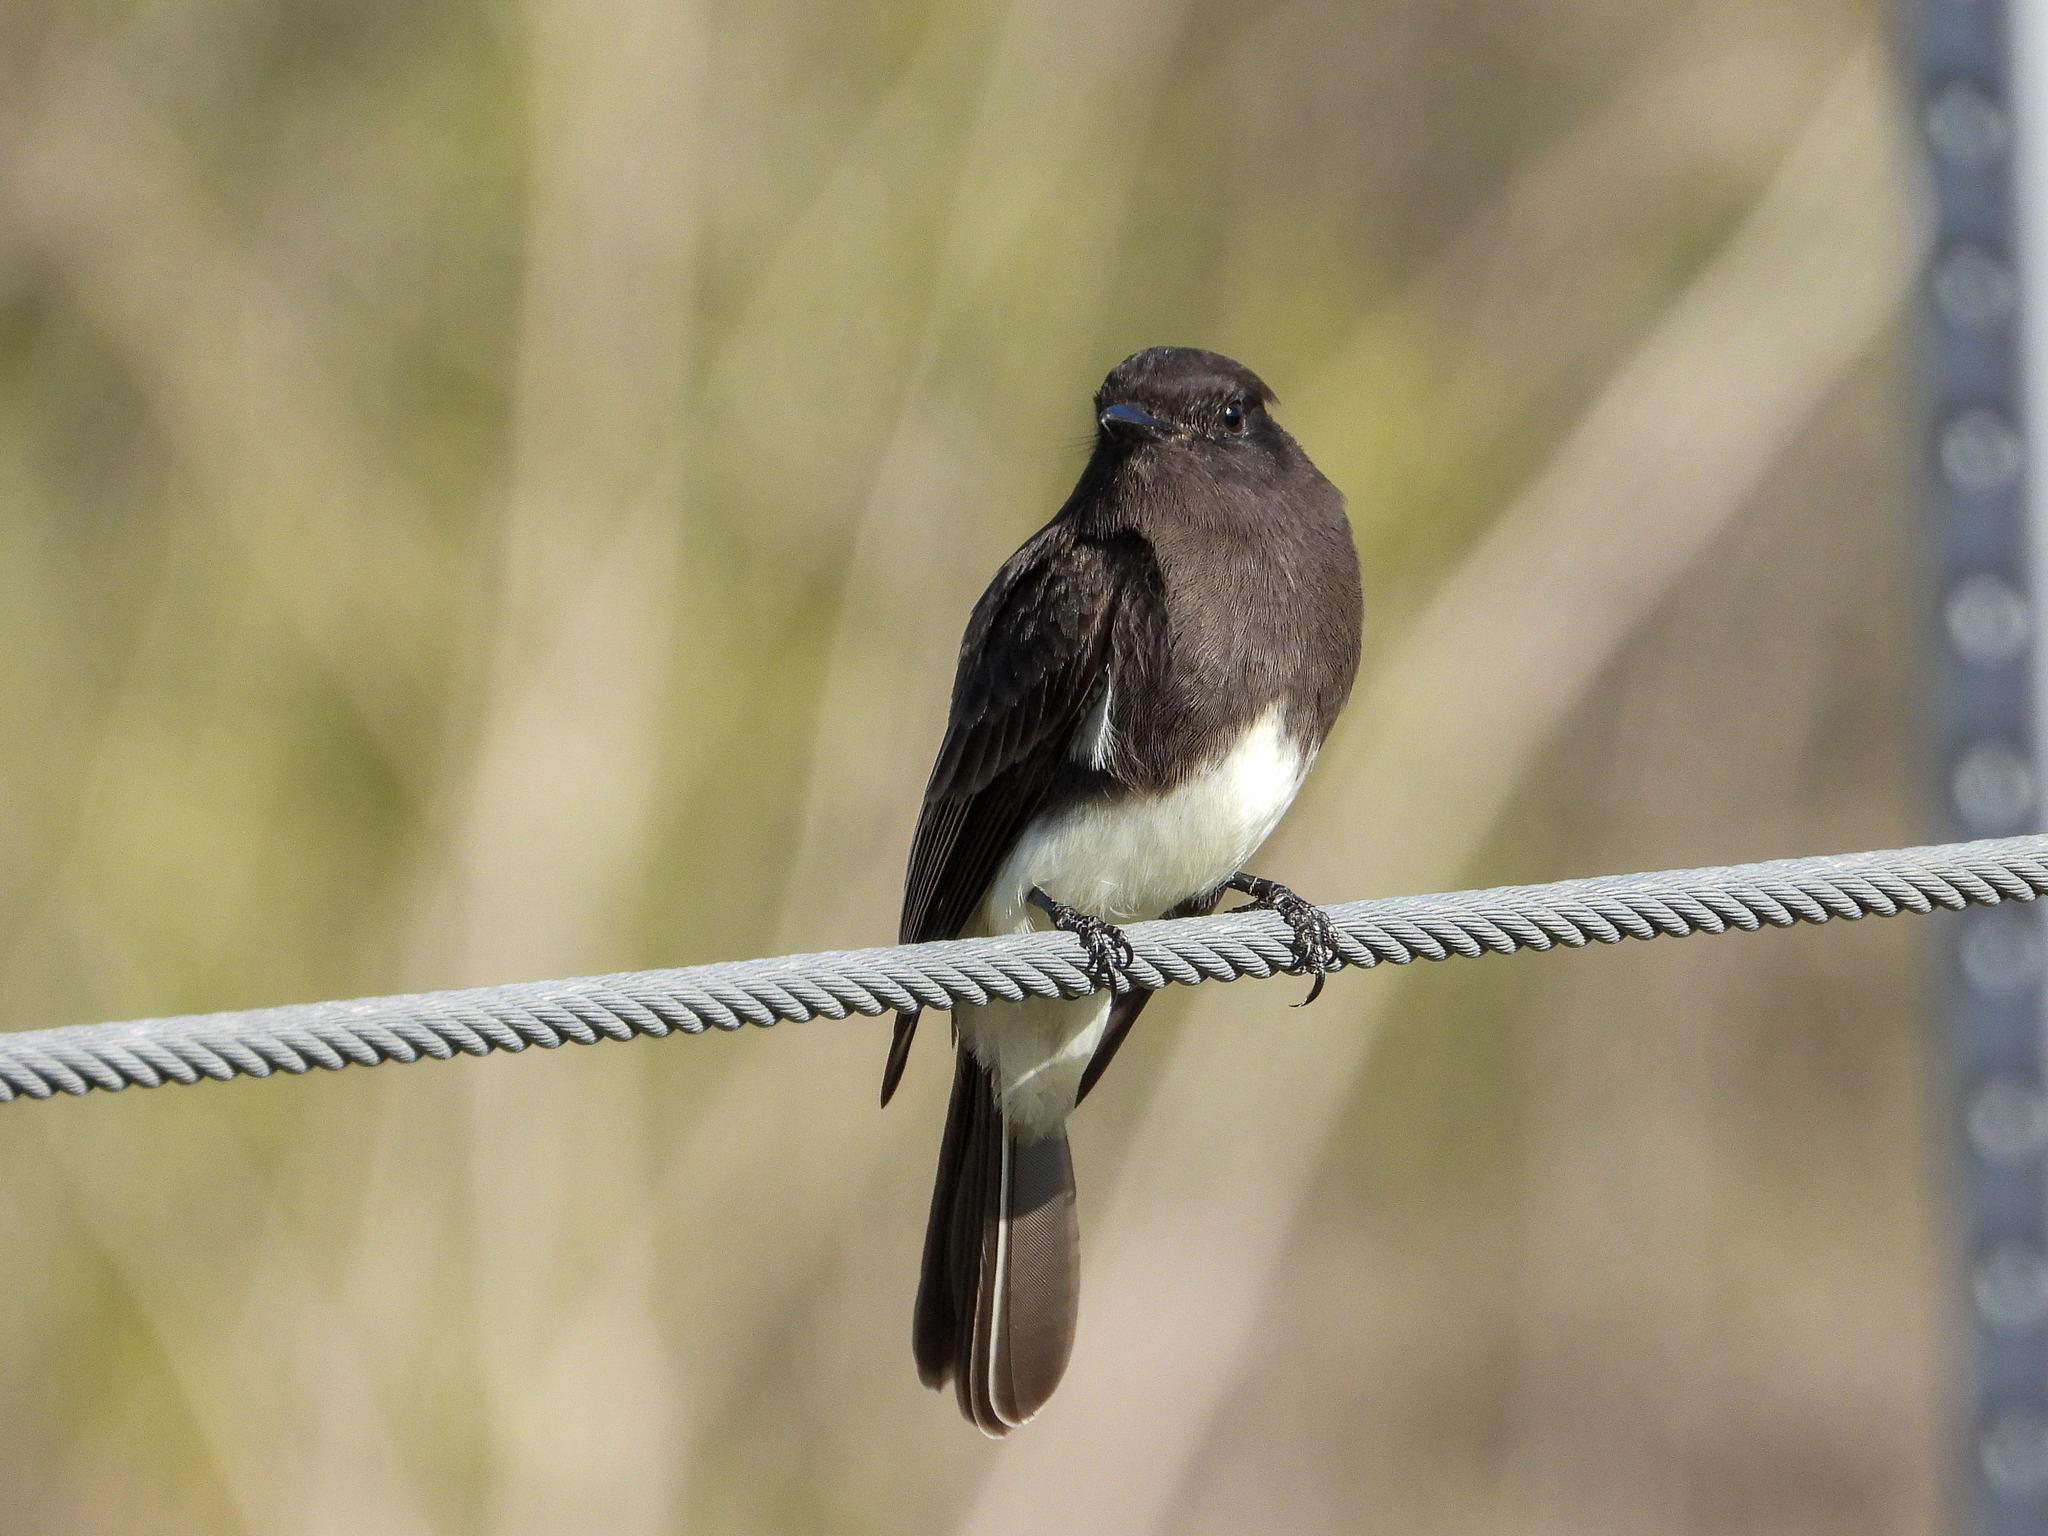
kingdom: Animalia
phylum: Chordata
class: Aves
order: Passeriformes
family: Tyrannidae
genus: Sayornis
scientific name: Sayornis nigricans
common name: Black phoebe
